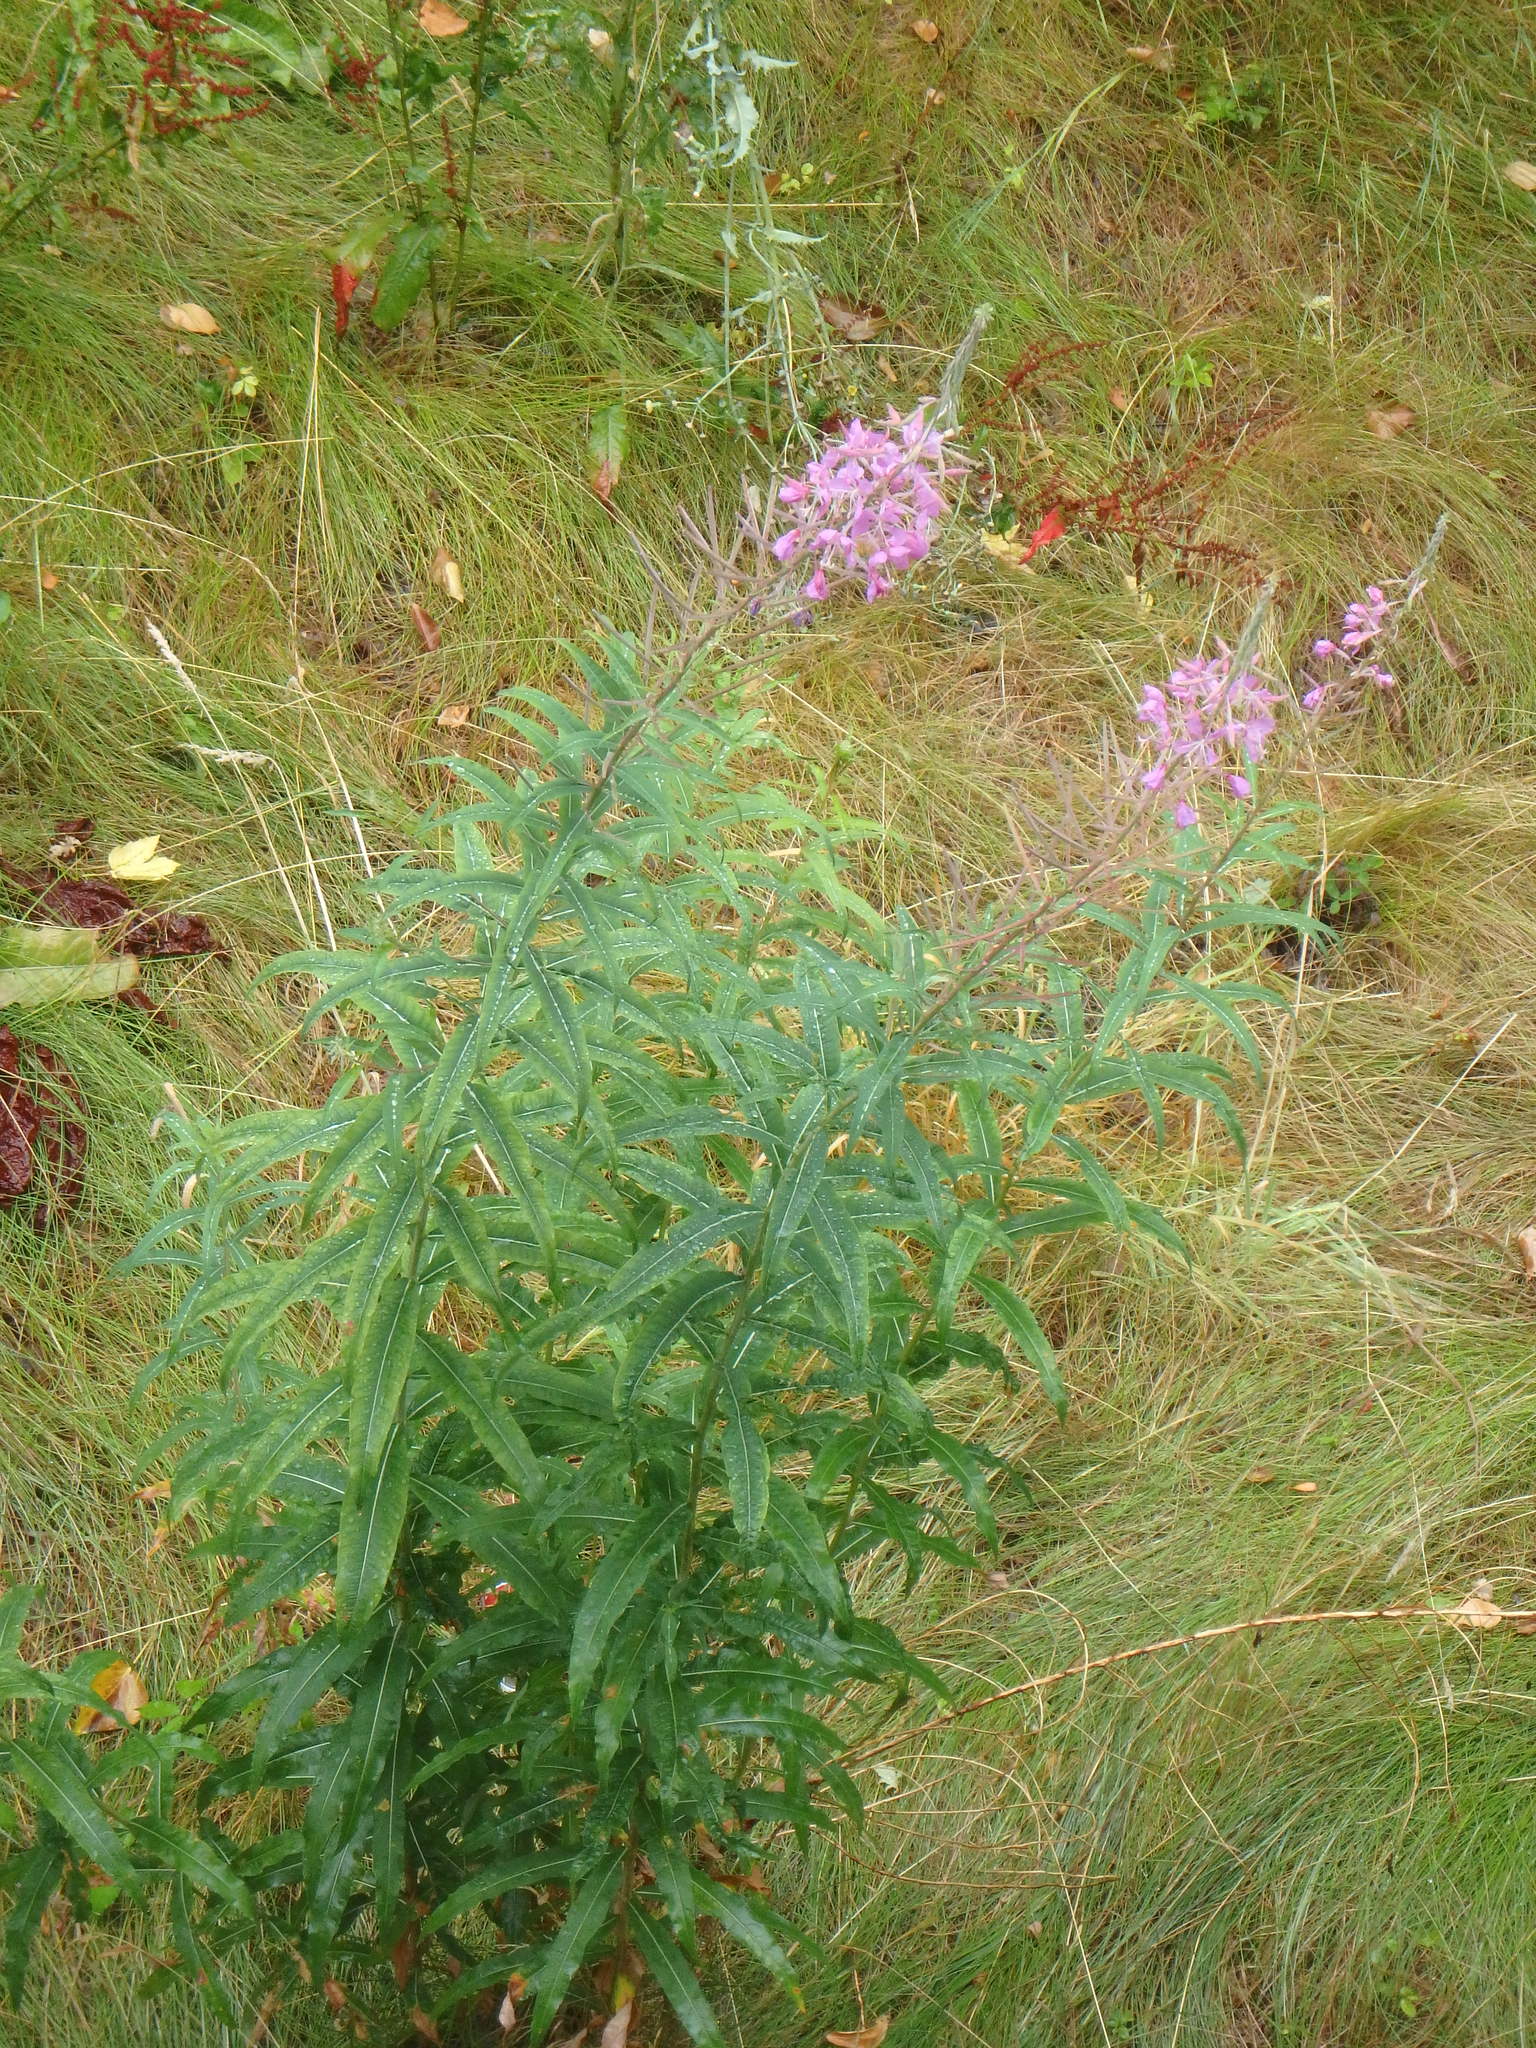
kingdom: Plantae
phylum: Tracheophyta
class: Magnoliopsida
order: Myrtales
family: Onagraceae
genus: Chamaenerion
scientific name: Chamaenerion angustifolium
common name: Fireweed
